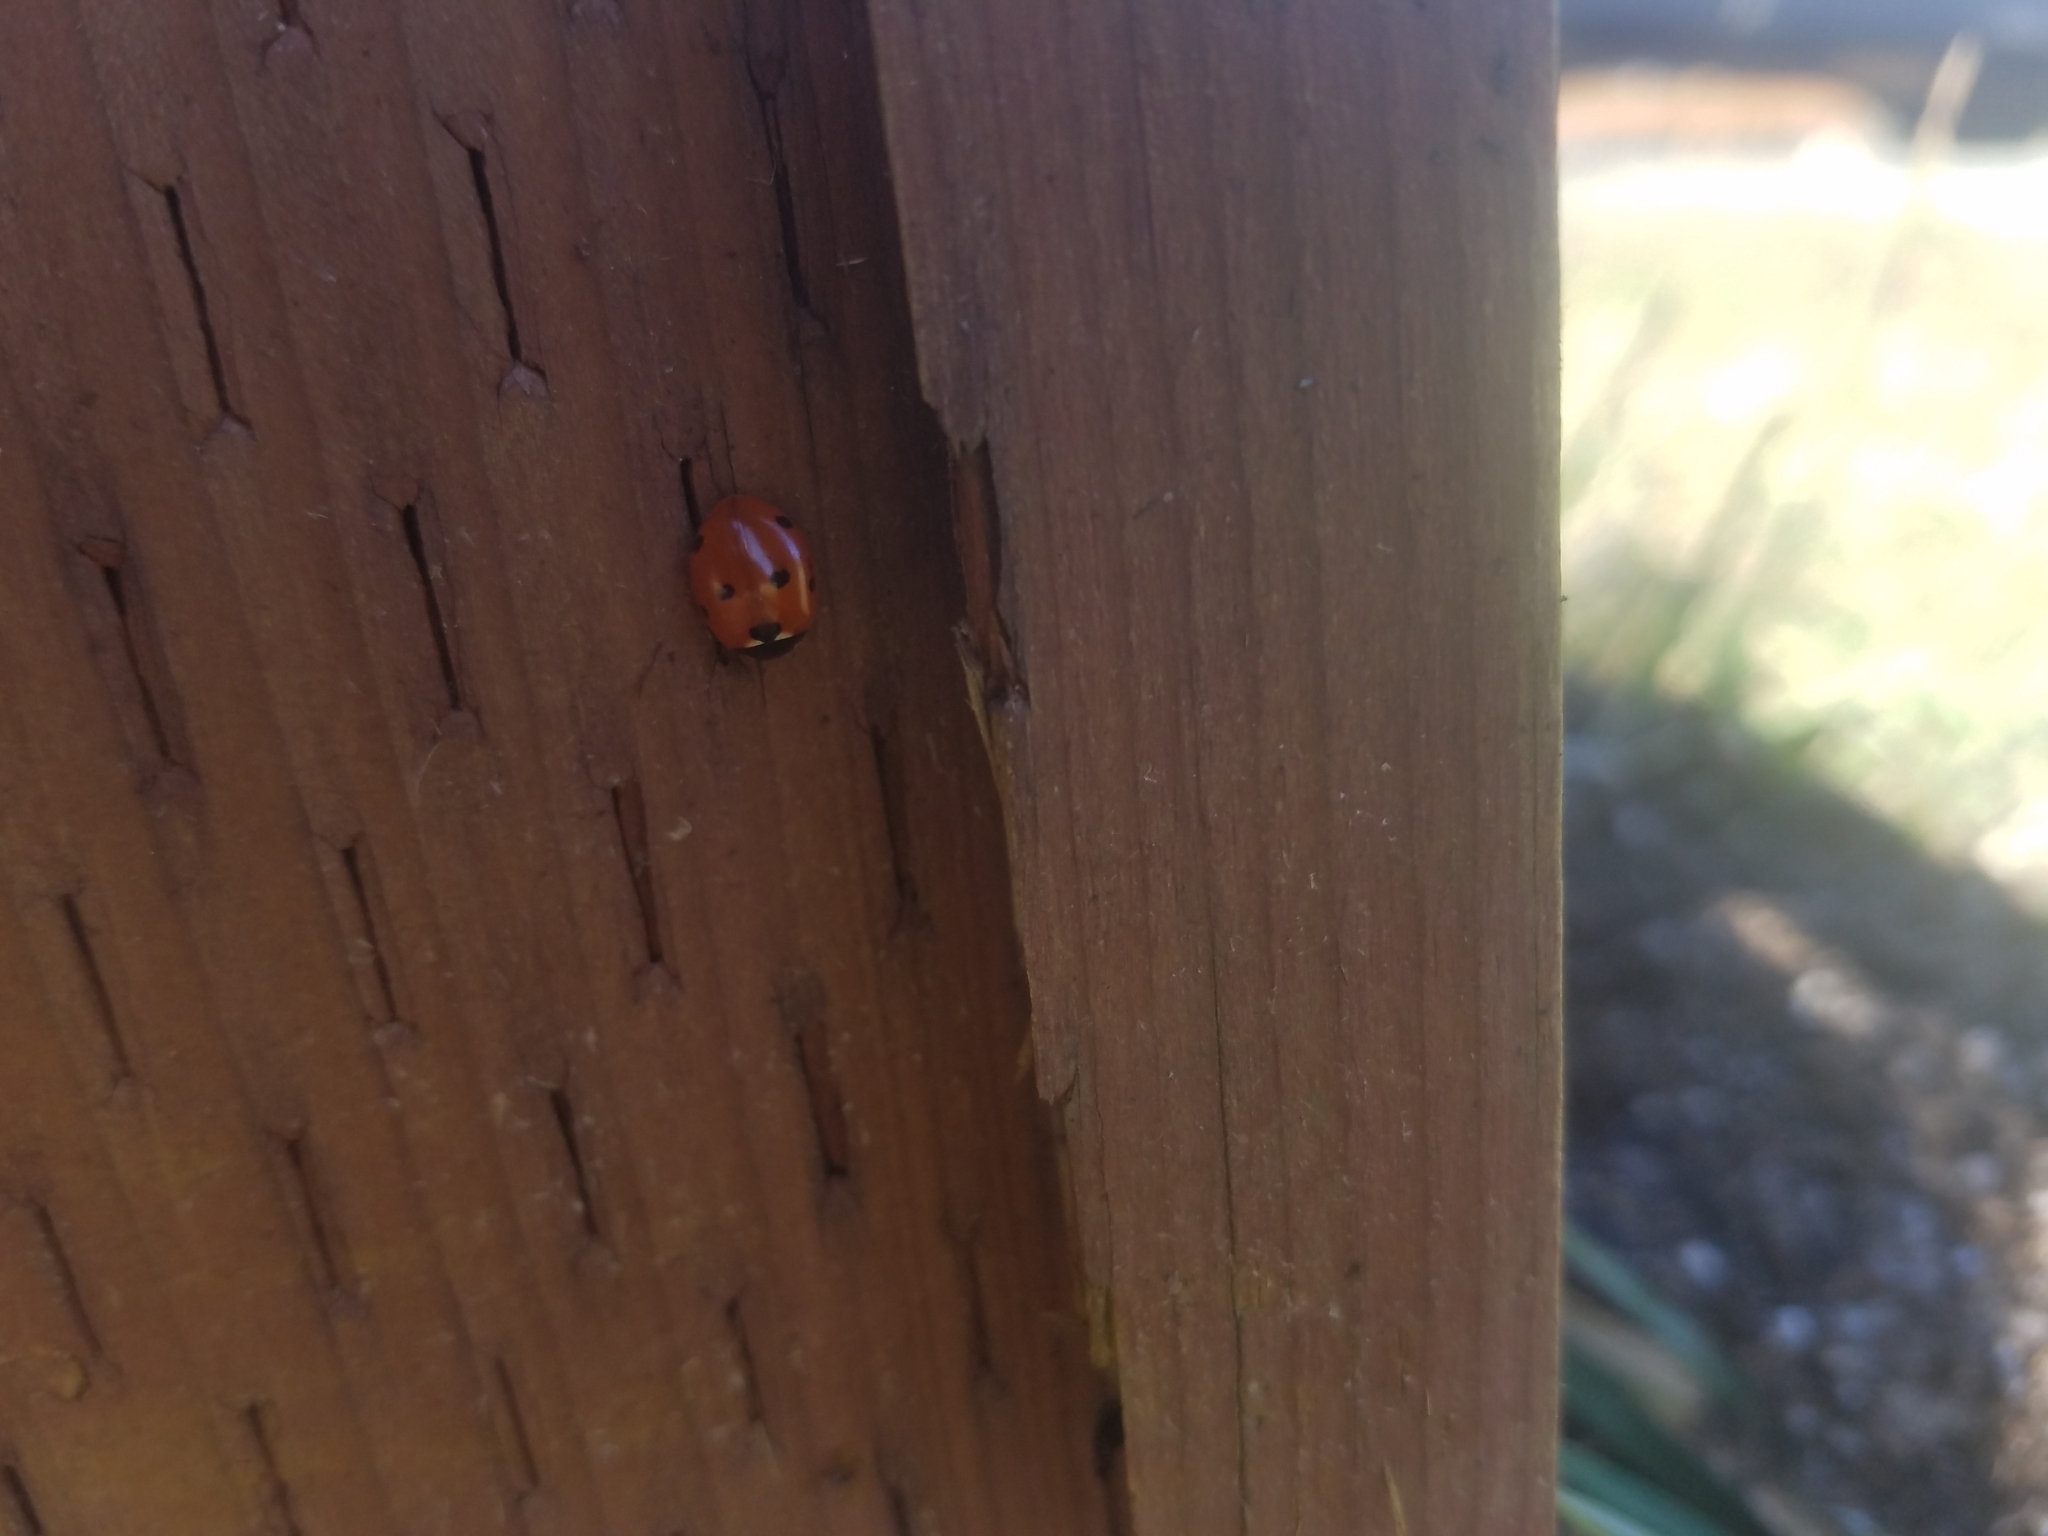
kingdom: Animalia
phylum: Arthropoda
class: Insecta
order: Coleoptera
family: Coccinellidae
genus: Coccinella
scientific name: Coccinella septempunctata
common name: Sevenspotted lady beetle
